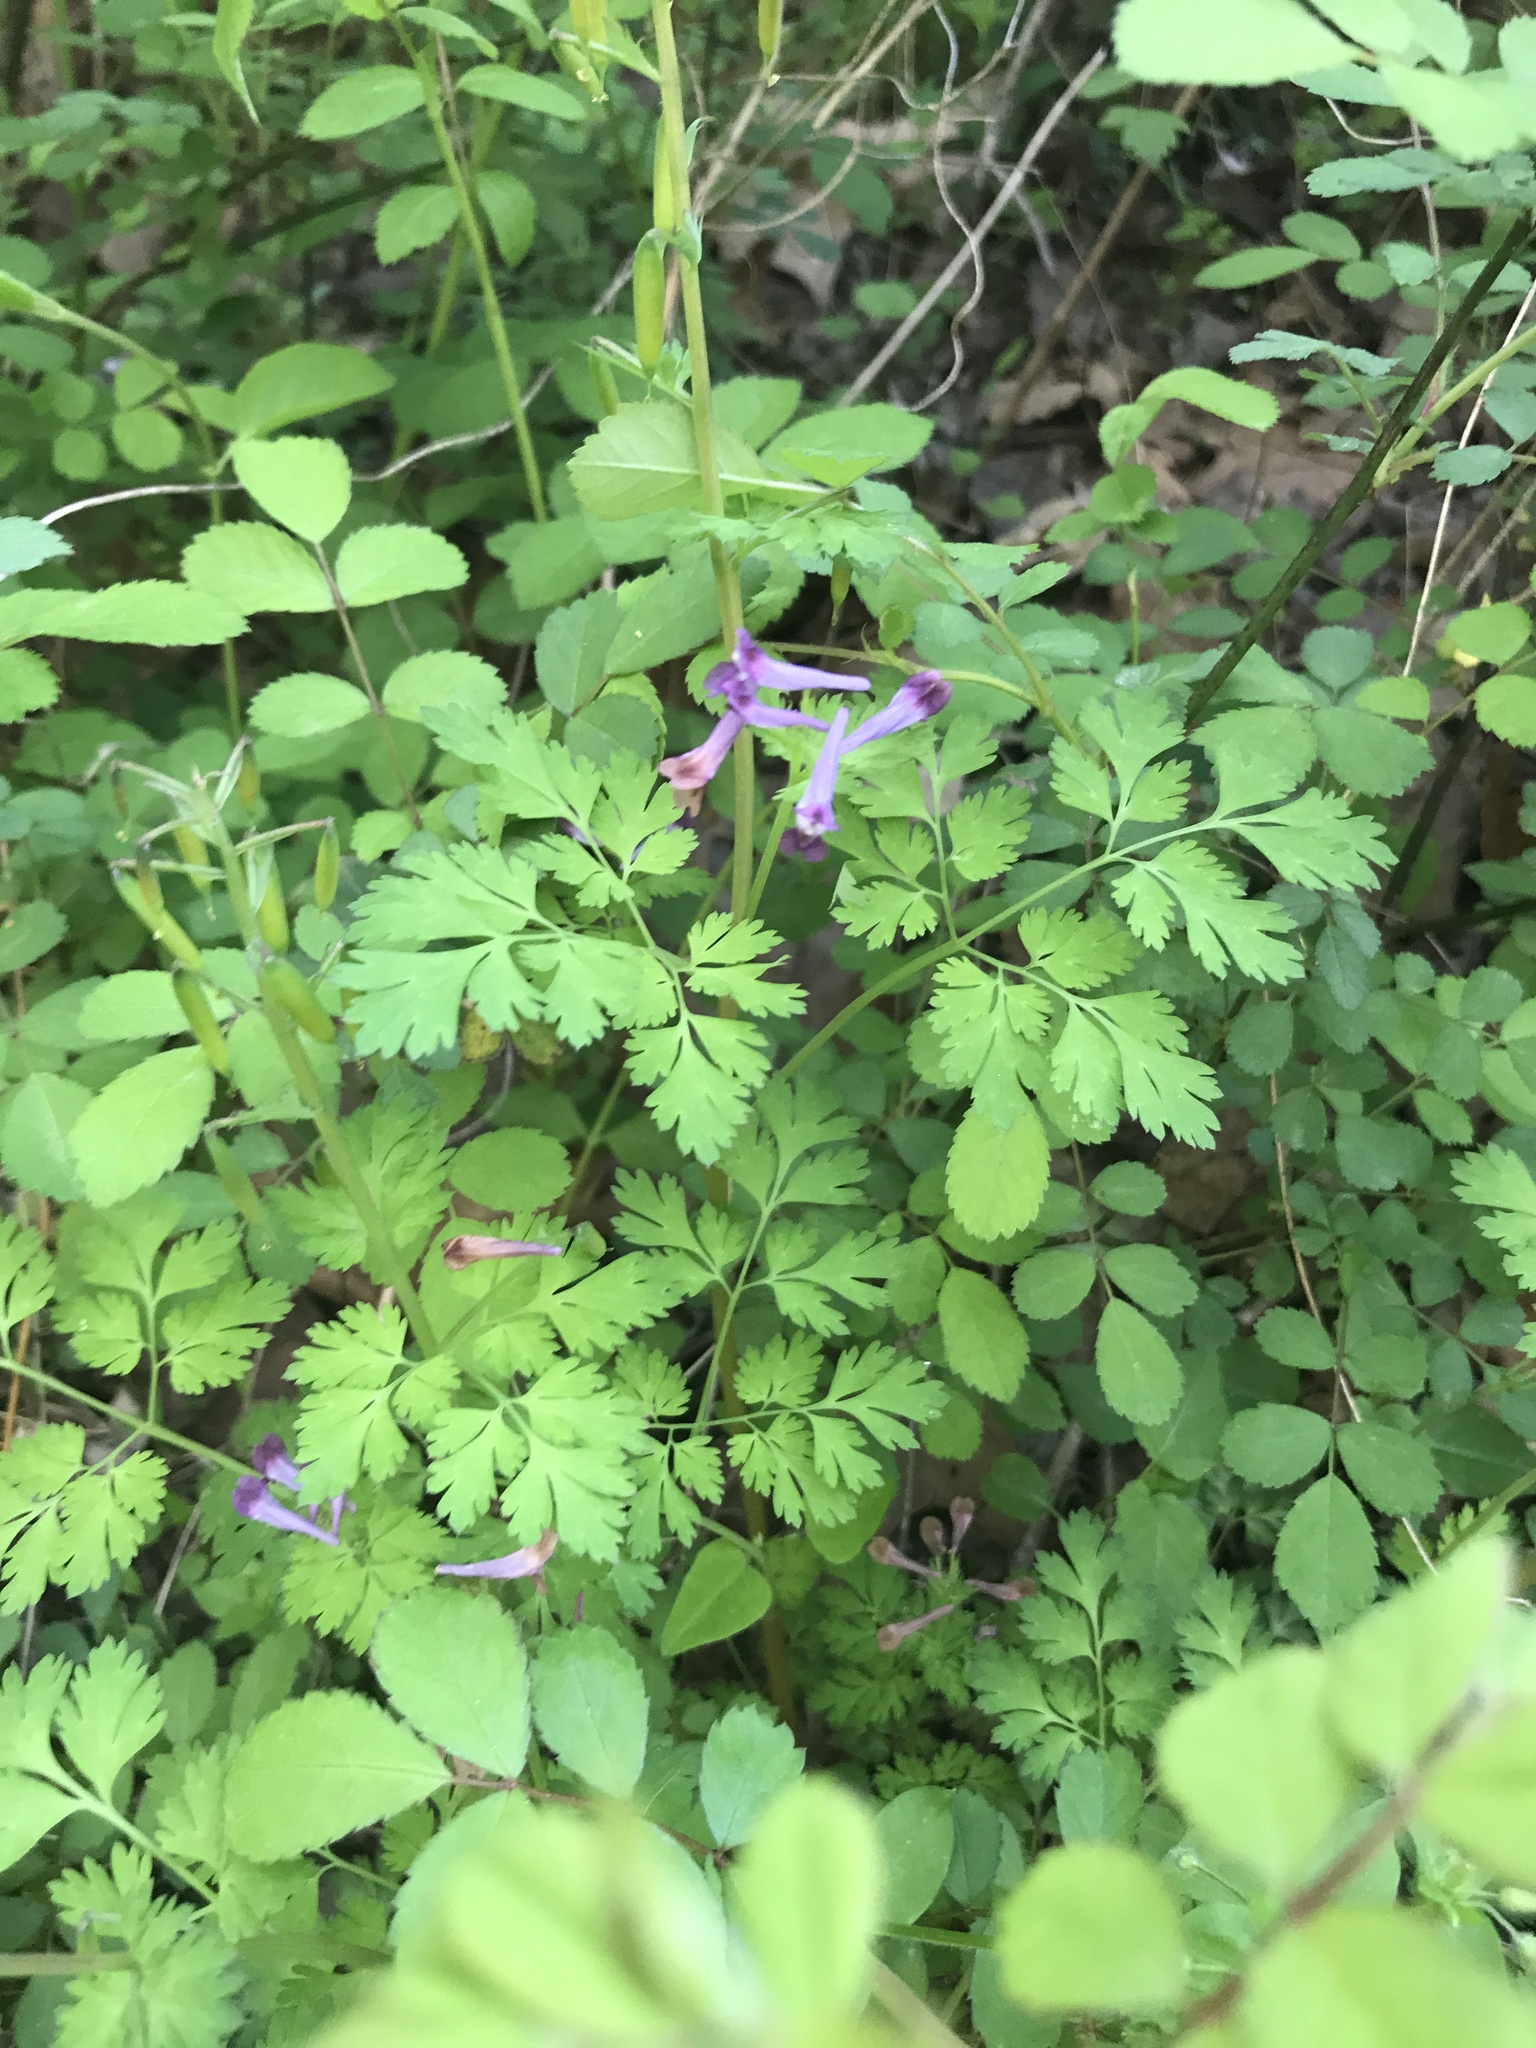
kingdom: Plantae
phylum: Tracheophyta
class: Magnoliopsida
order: Ranunculales
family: Papaveraceae
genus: Corydalis
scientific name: Corydalis incisa
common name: Incised fumewort
